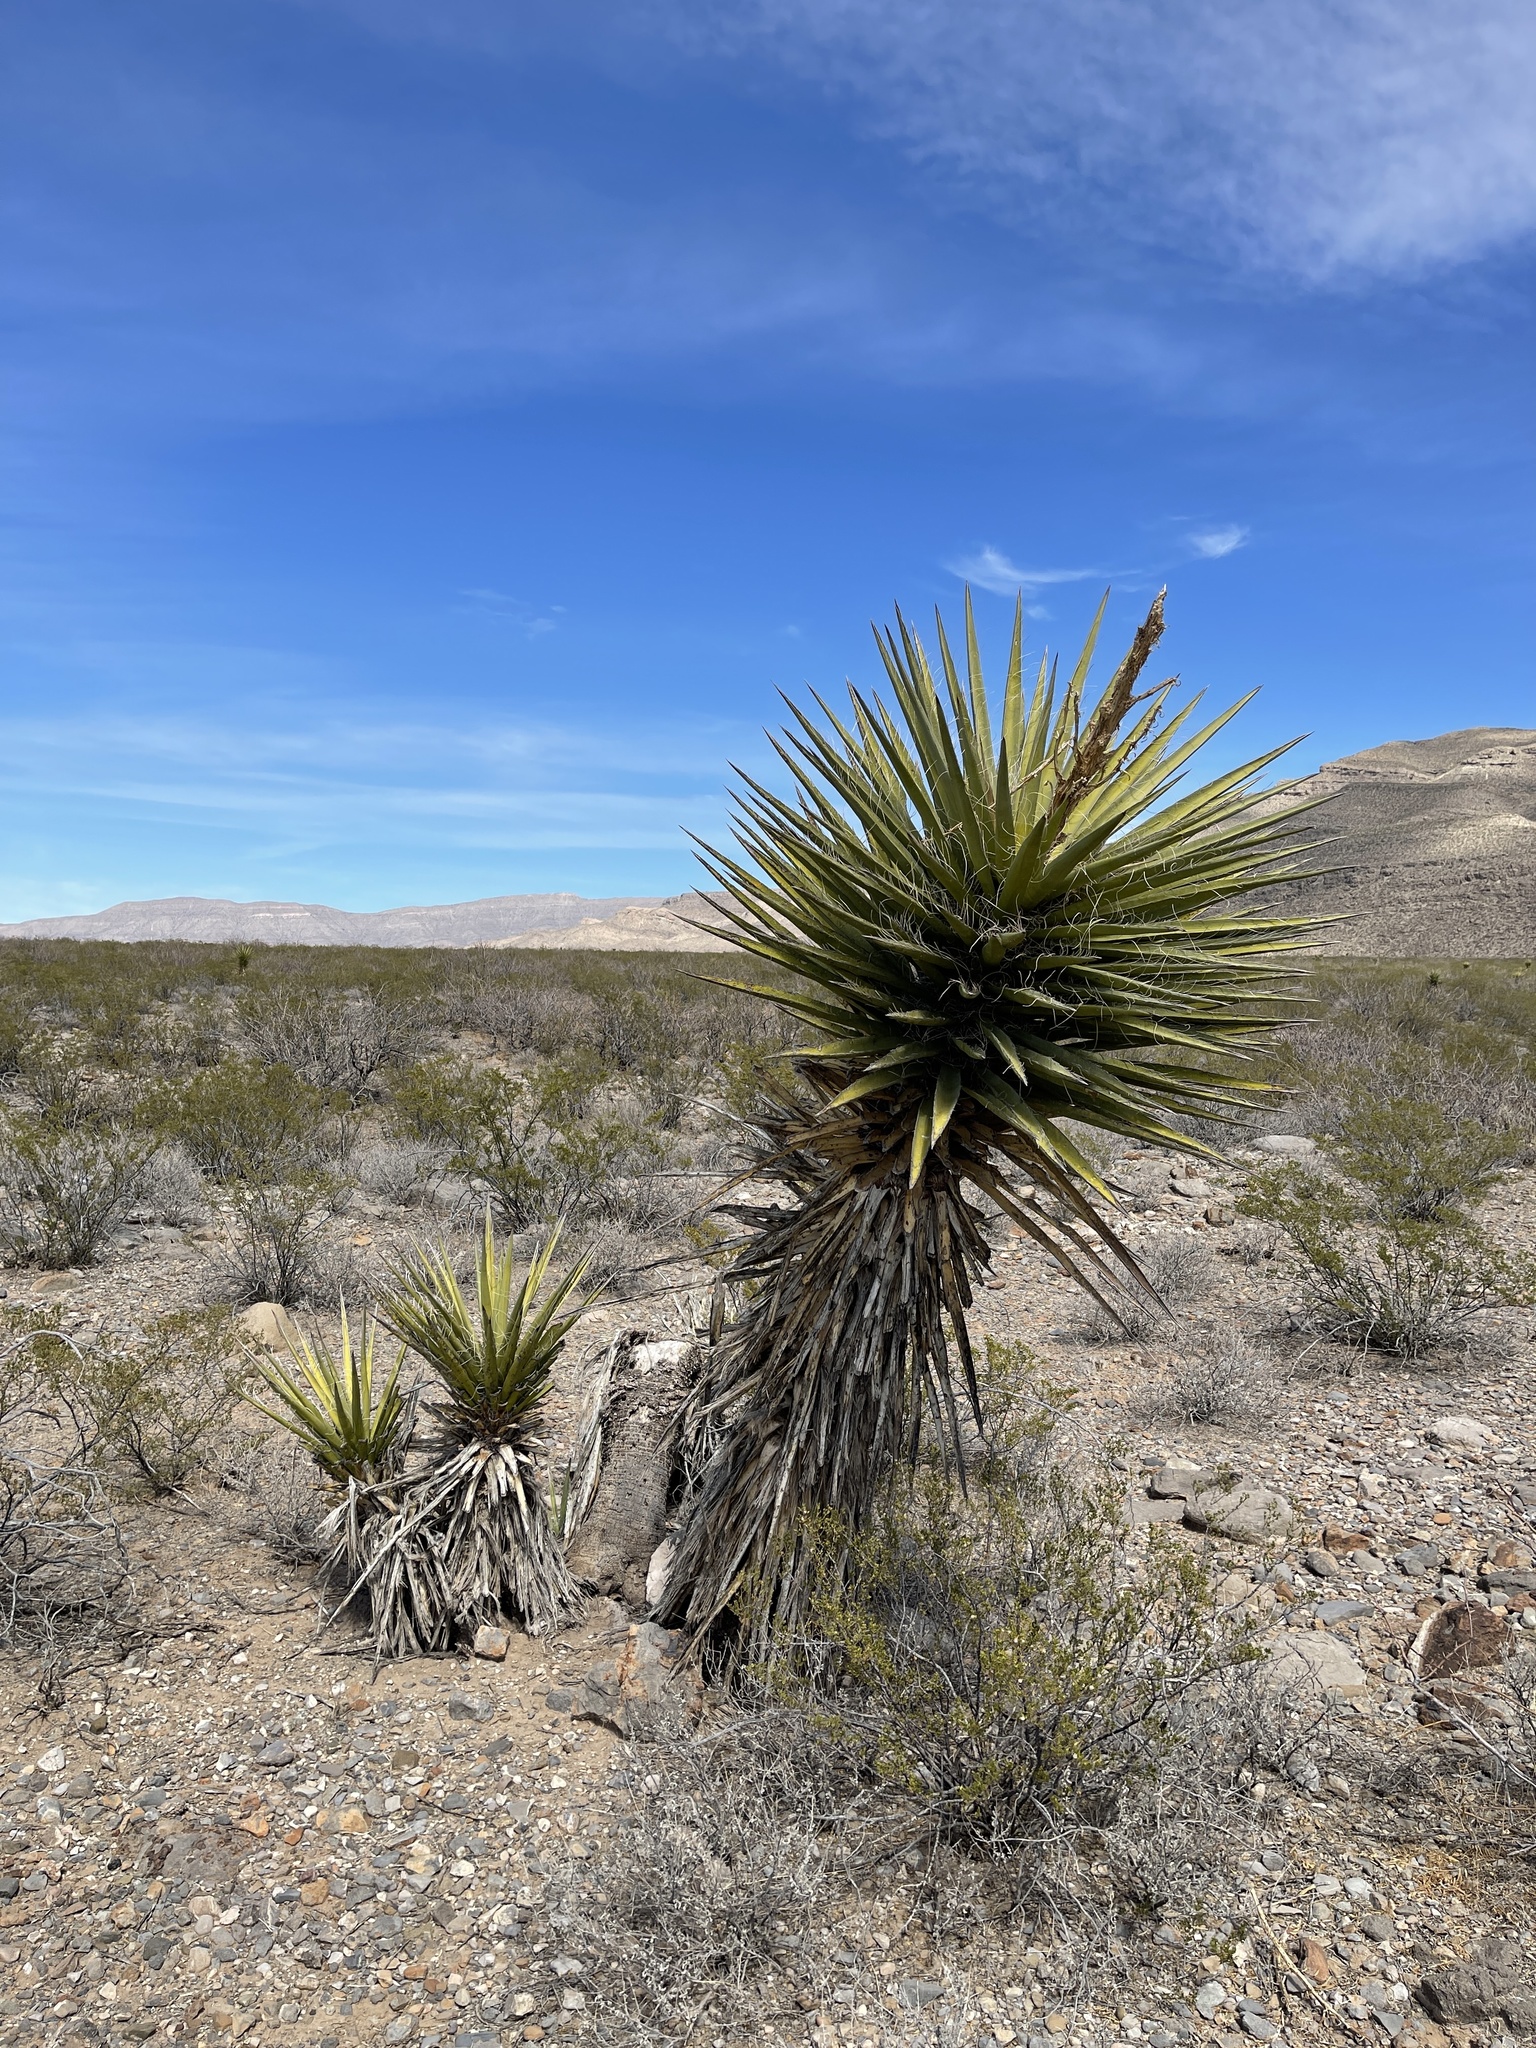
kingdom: Plantae
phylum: Tracheophyta
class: Liliopsida
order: Asparagales
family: Asparagaceae
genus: Yucca
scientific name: Yucca treculiana
